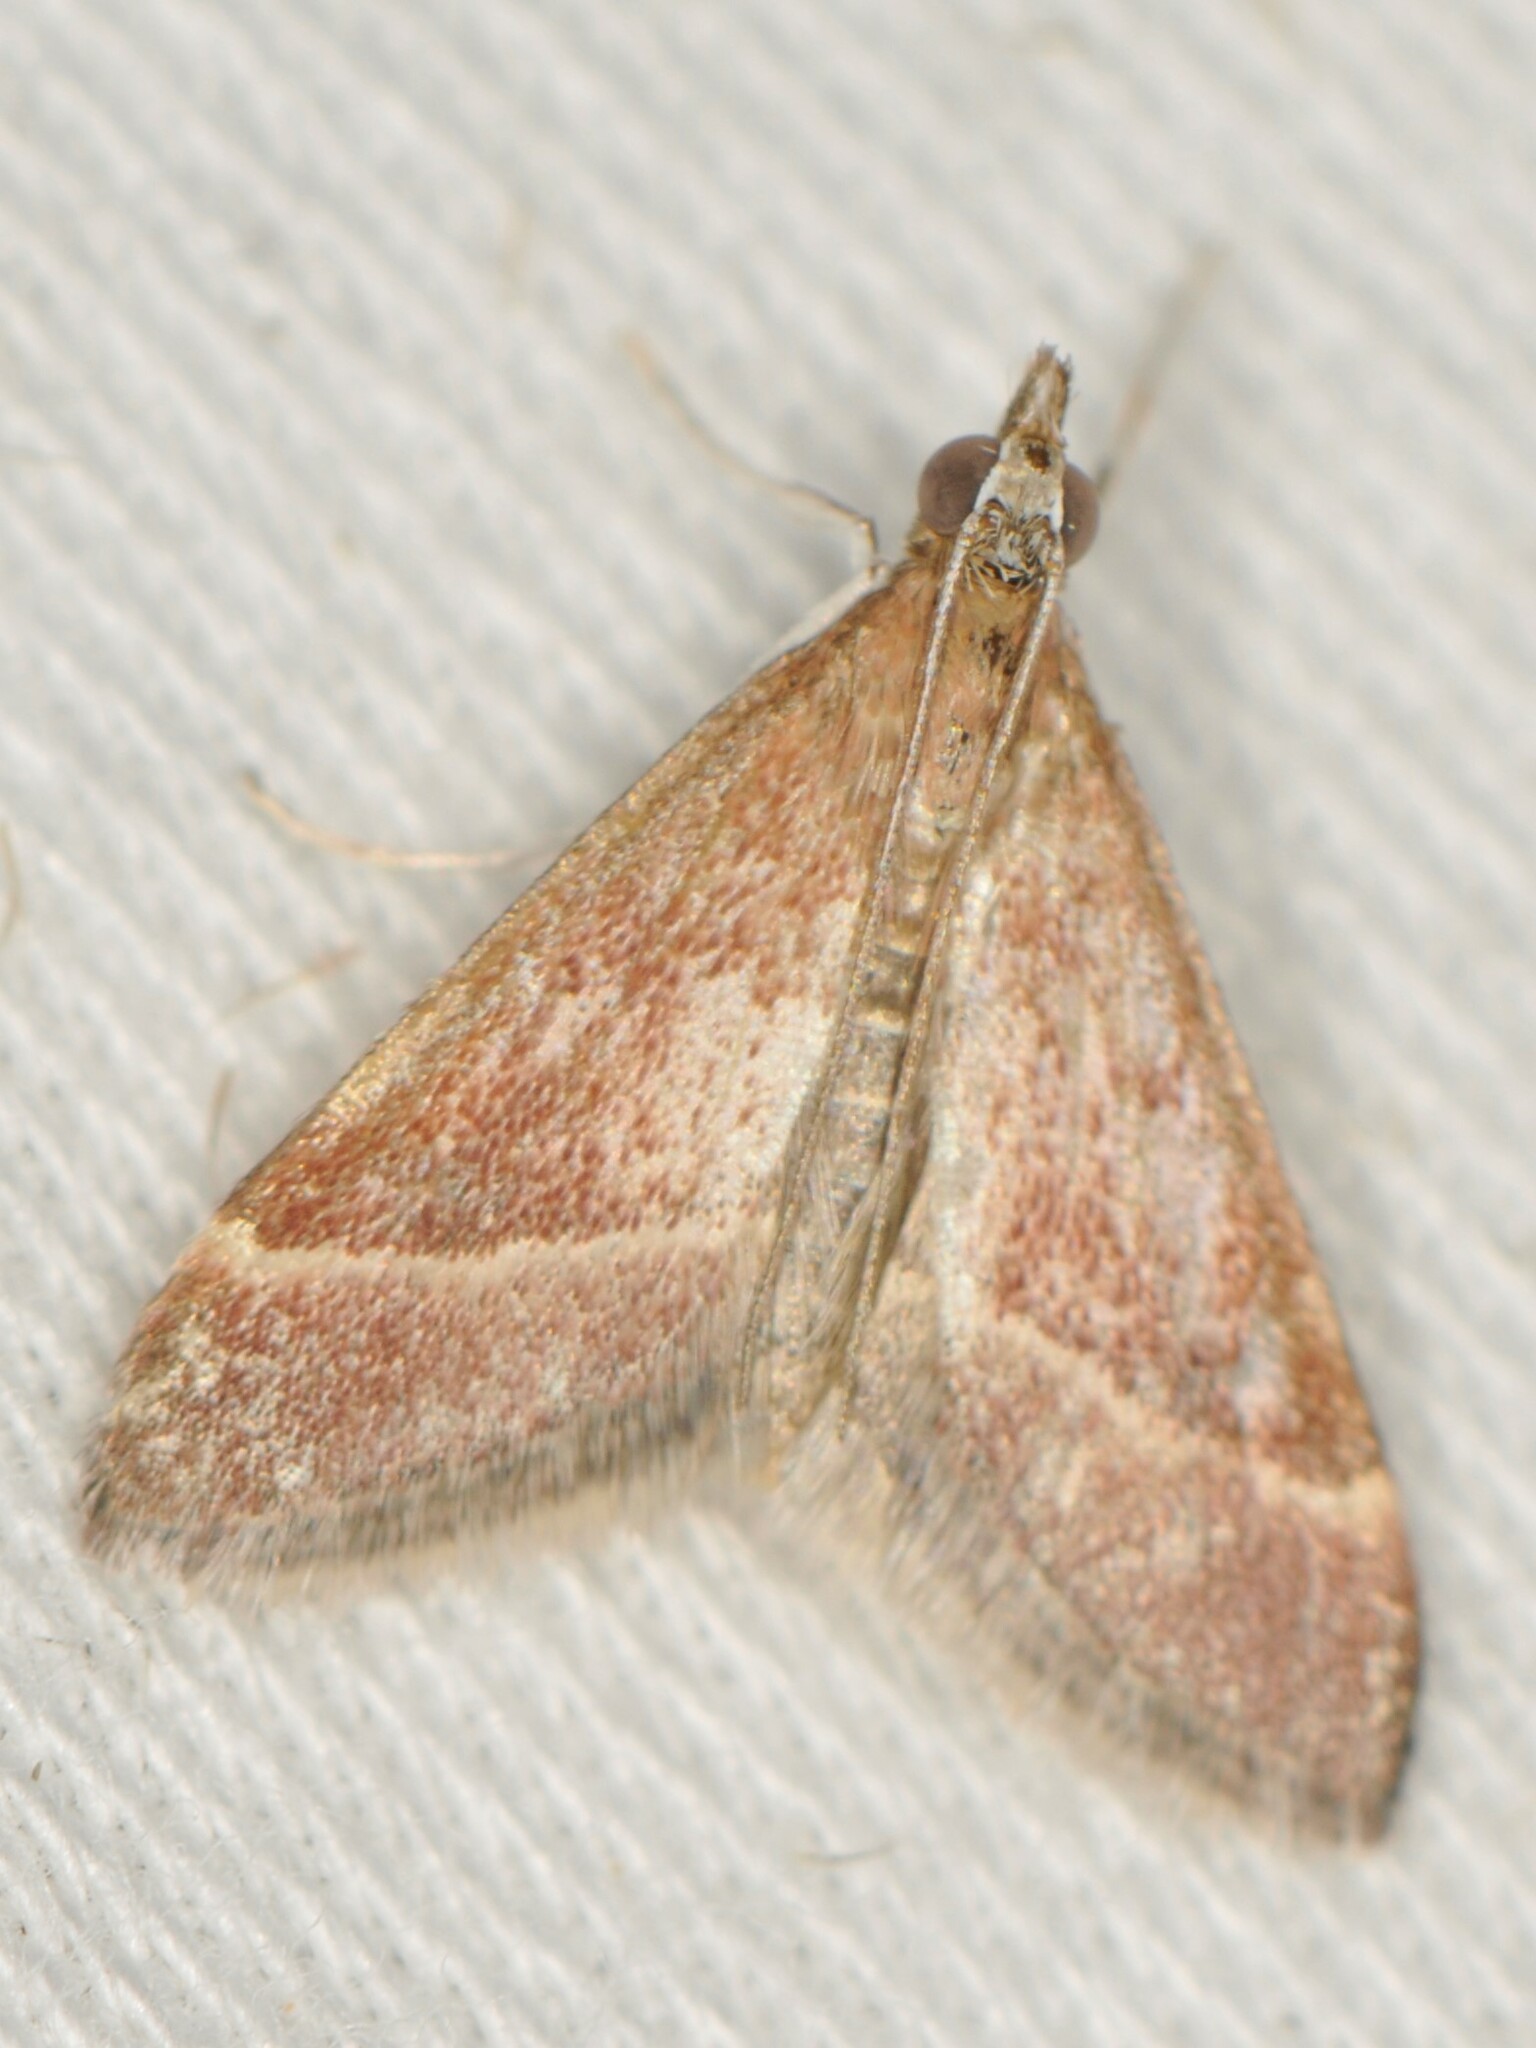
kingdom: Animalia
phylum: Arthropoda
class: Insecta
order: Lepidoptera
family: Crambidae
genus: Pyrausta
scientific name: Pyrausta lethalis
